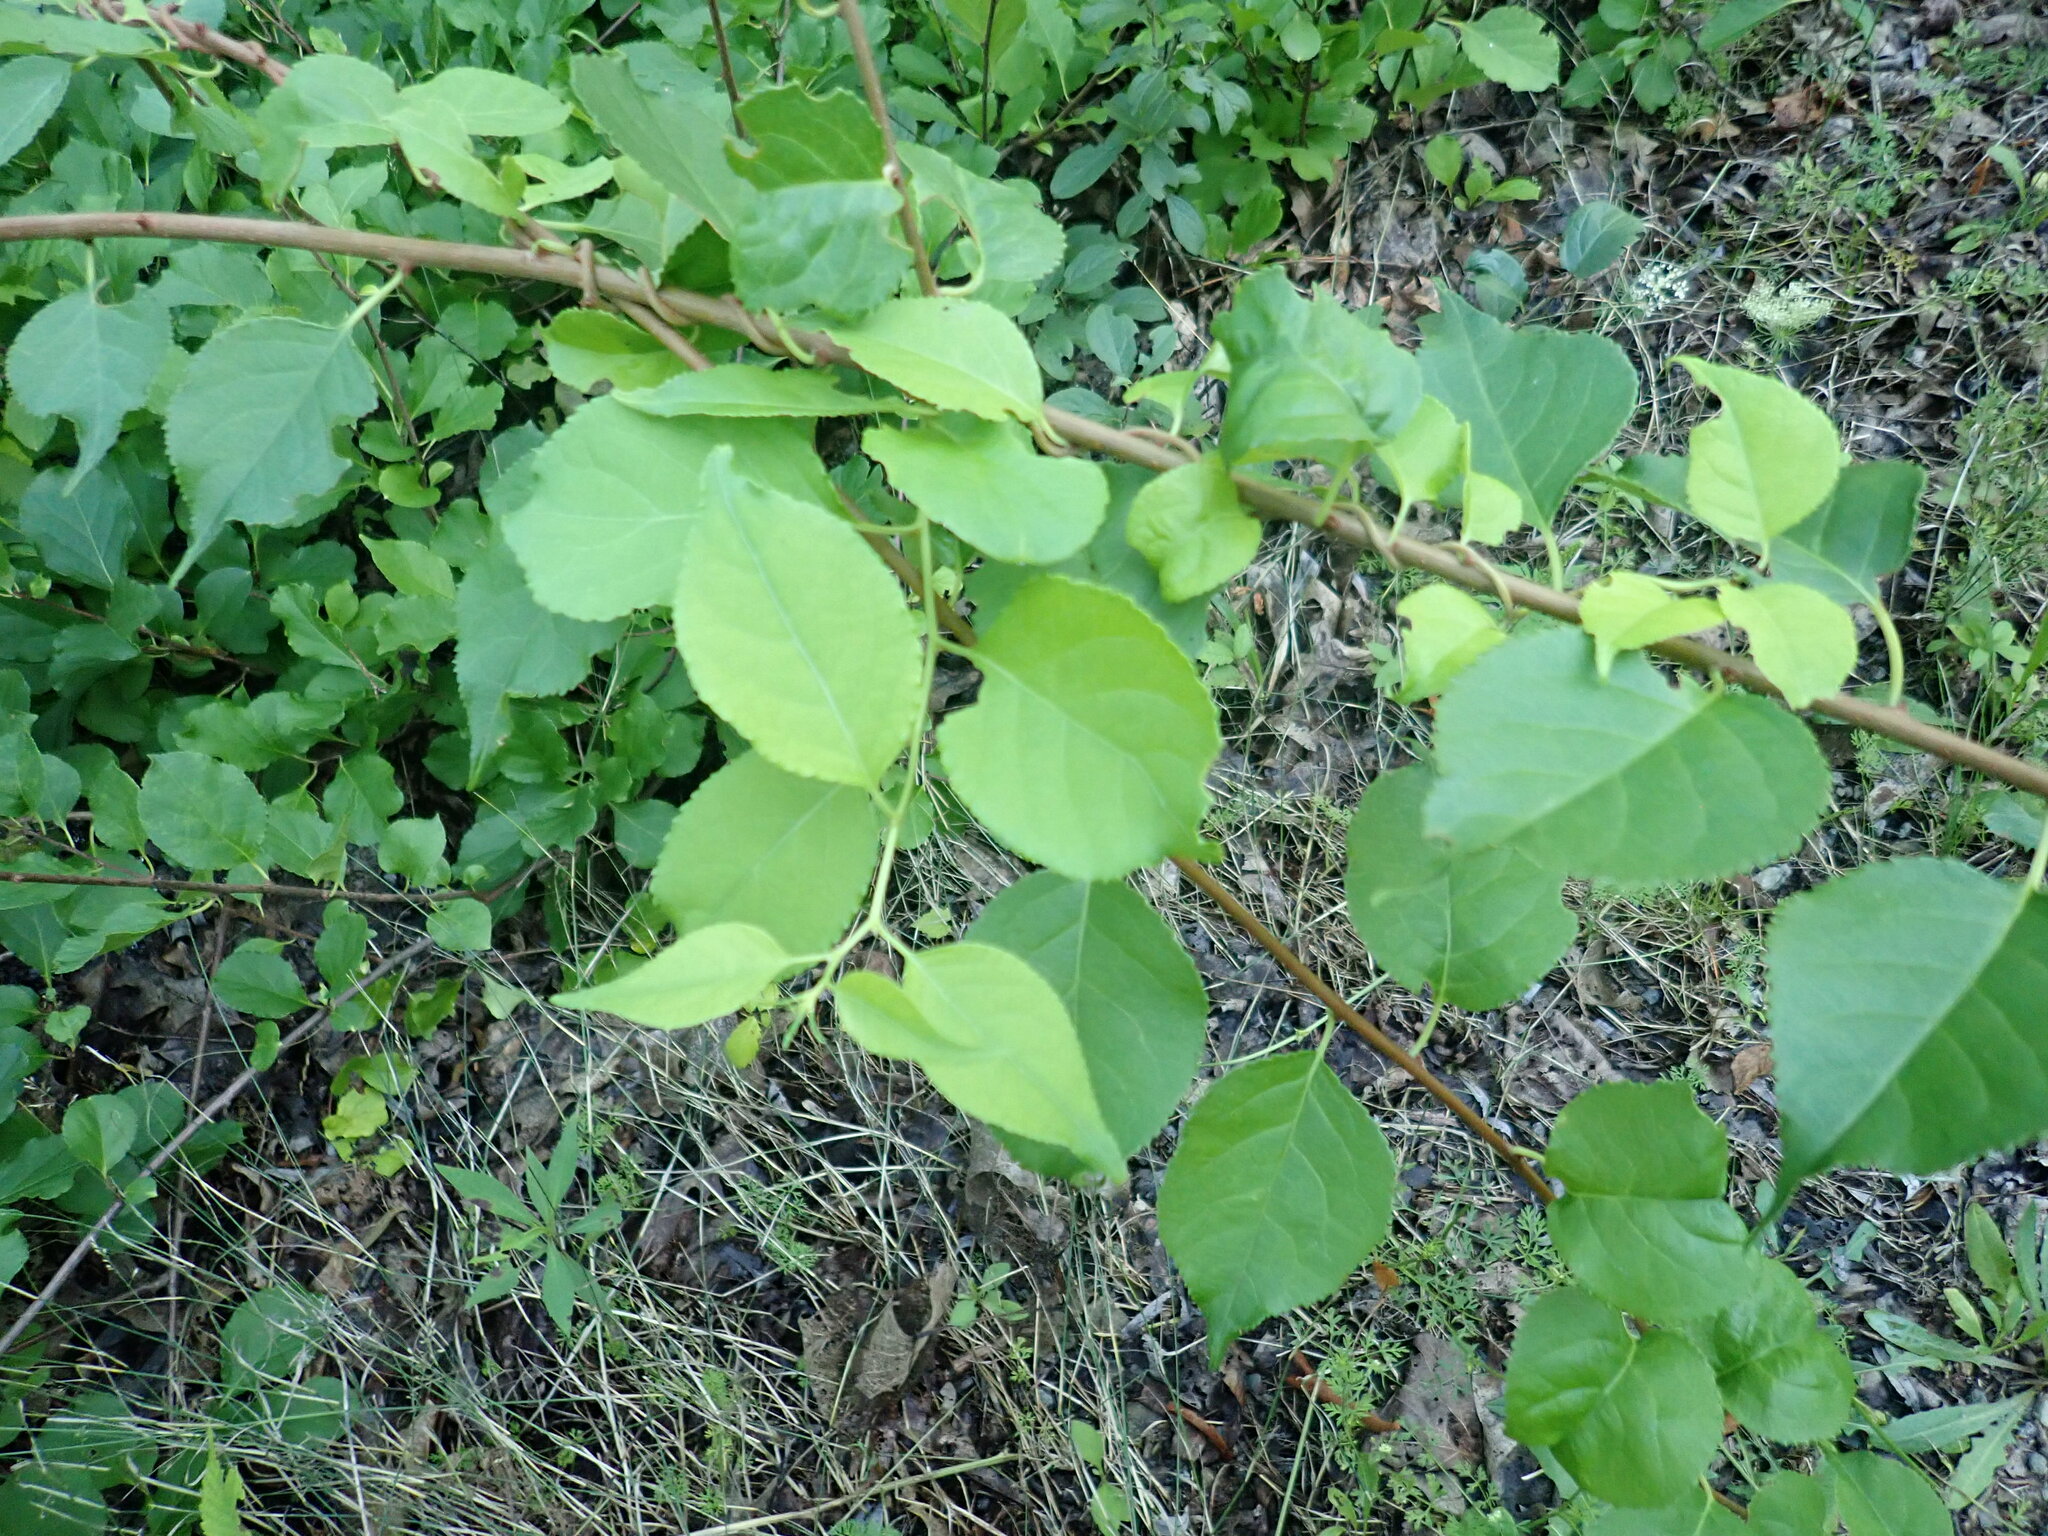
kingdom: Plantae
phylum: Tracheophyta
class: Magnoliopsida
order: Celastrales
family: Celastraceae
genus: Celastrus
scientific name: Celastrus orbiculatus
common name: Oriental bittersweet
